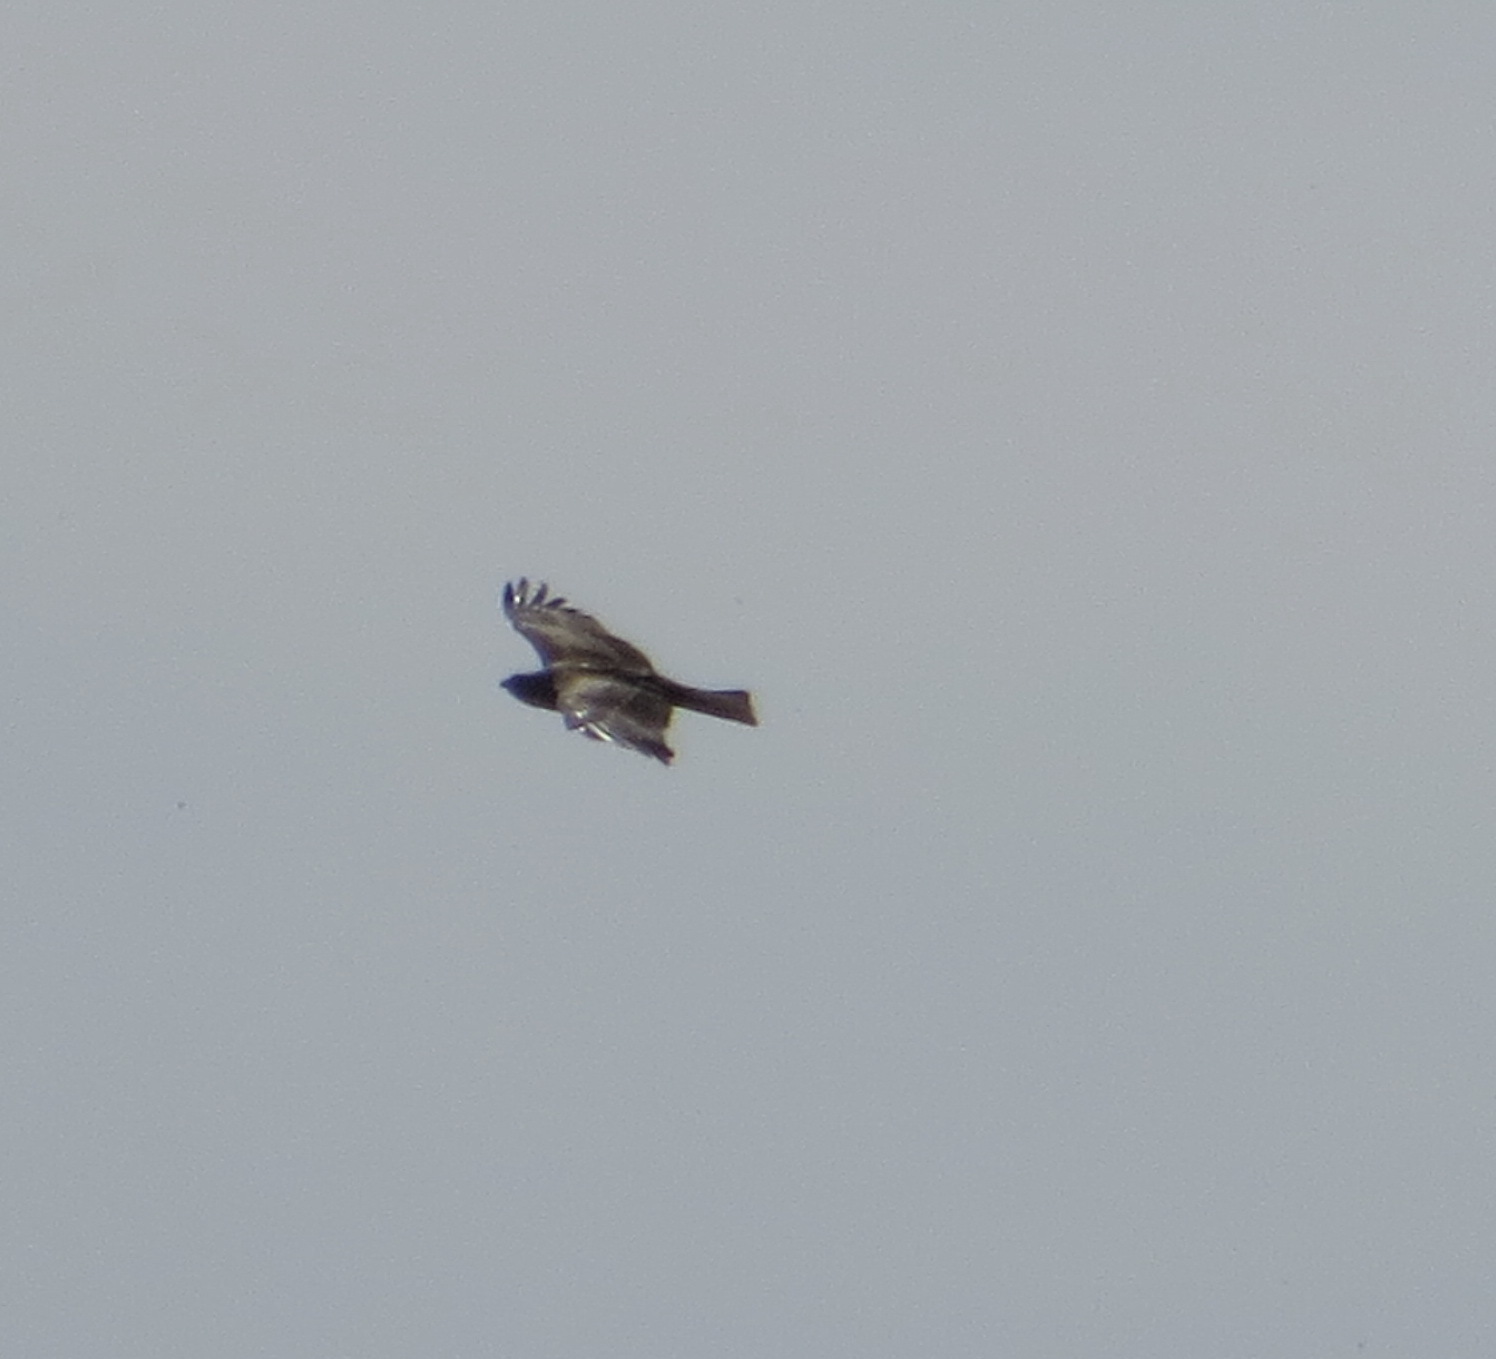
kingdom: Animalia
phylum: Chordata
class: Aves
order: Accipitriformes
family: Accipitridae
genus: Milvus
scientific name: Milvus migrans
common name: Black kite
